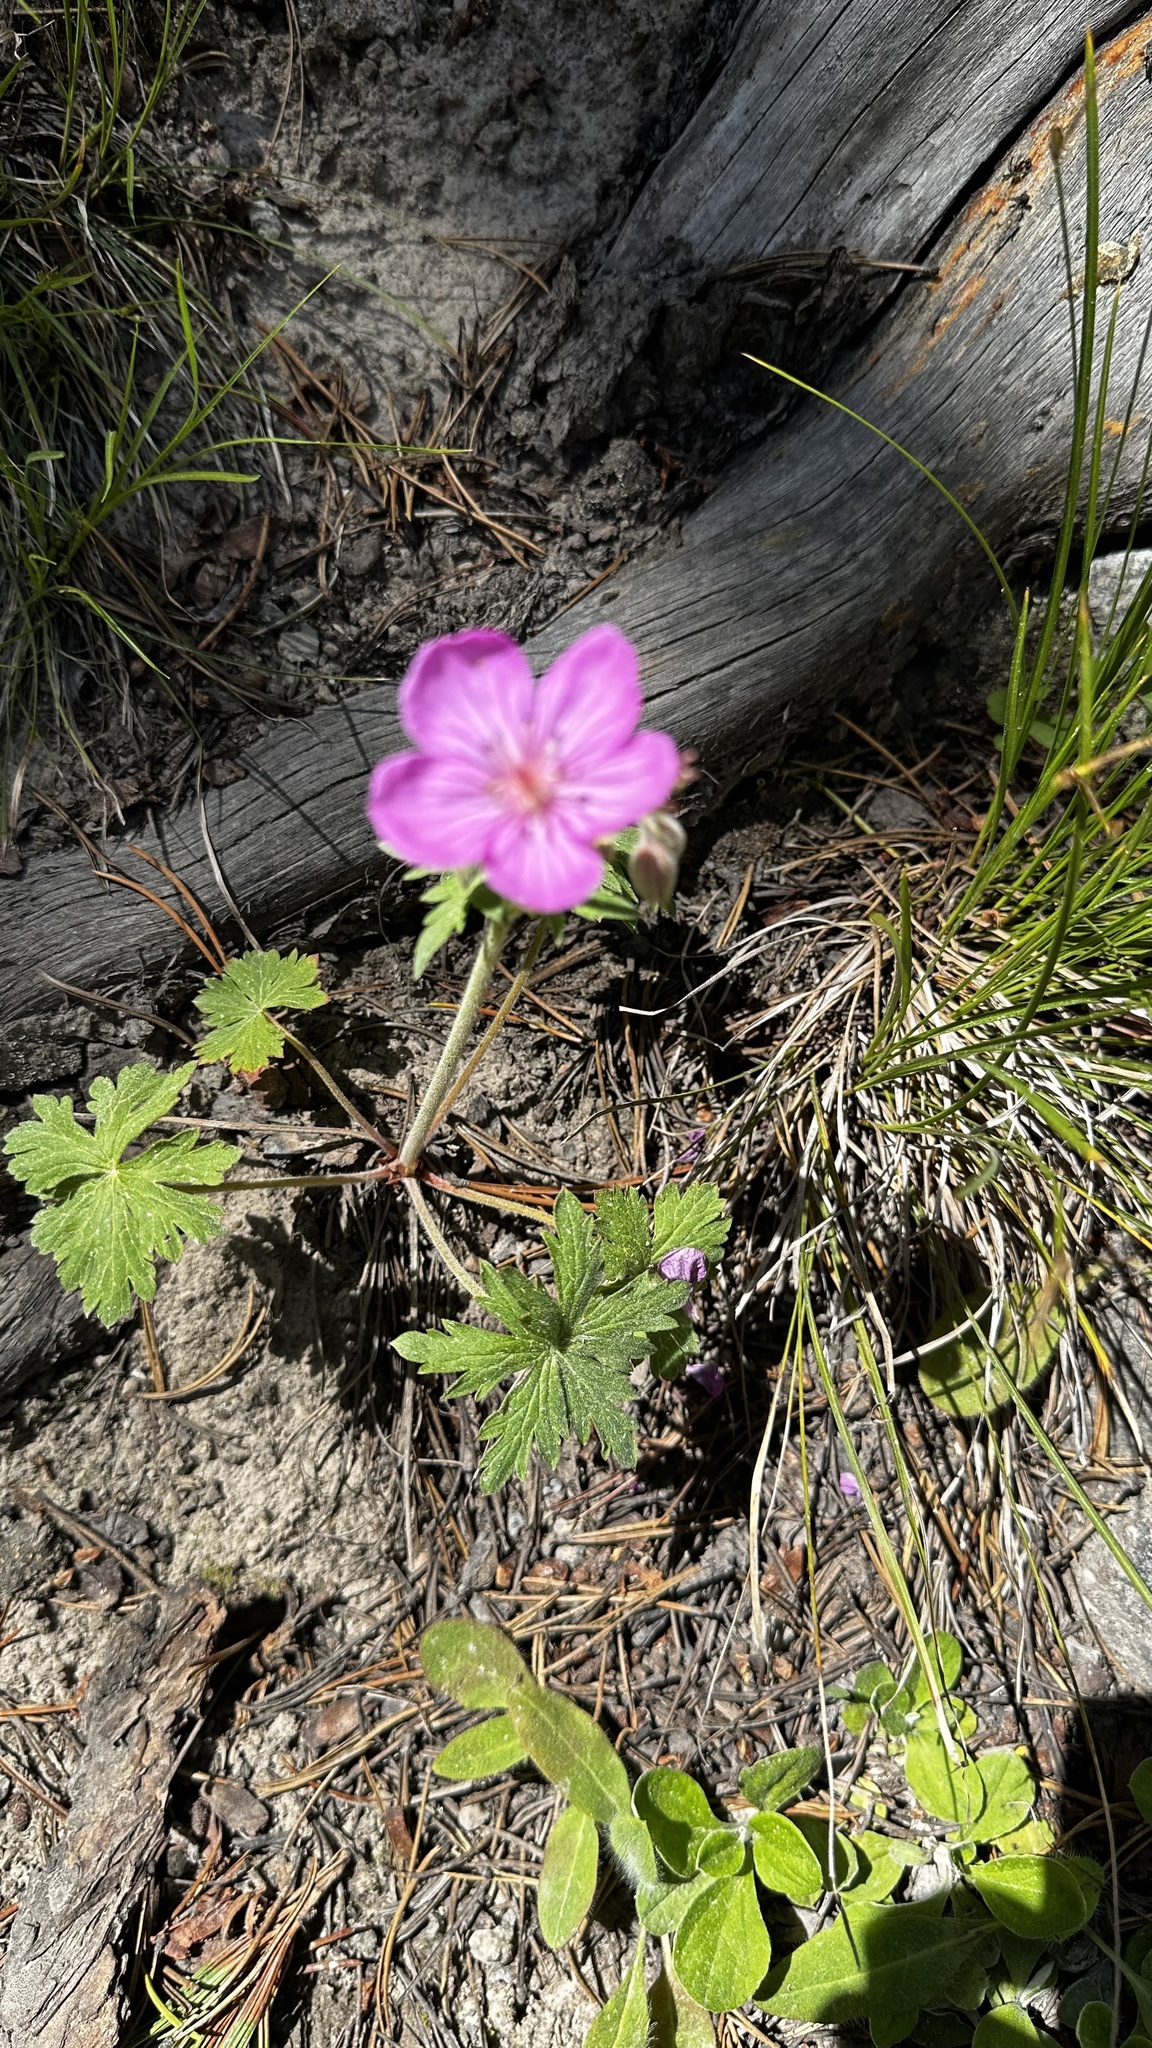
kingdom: Plantae
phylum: Tracheophyta
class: Magnoliopsida
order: Geraniales
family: Geraniaceae
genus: Geranium
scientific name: Geranium viscosissimum
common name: Purple geranium
